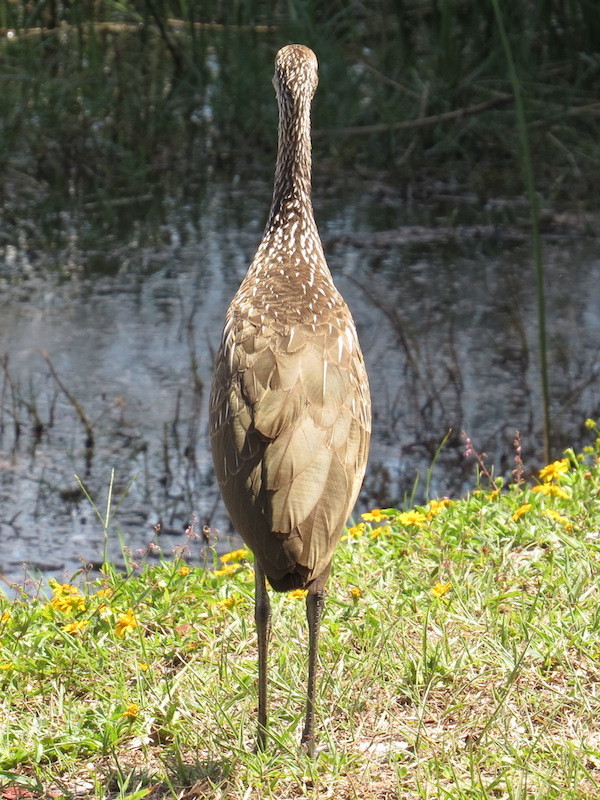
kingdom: Animalia
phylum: Chordata
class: Aves
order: Gruiformes
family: Aramidae
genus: Aramus
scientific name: Aramus guarauna
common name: Limpkin
